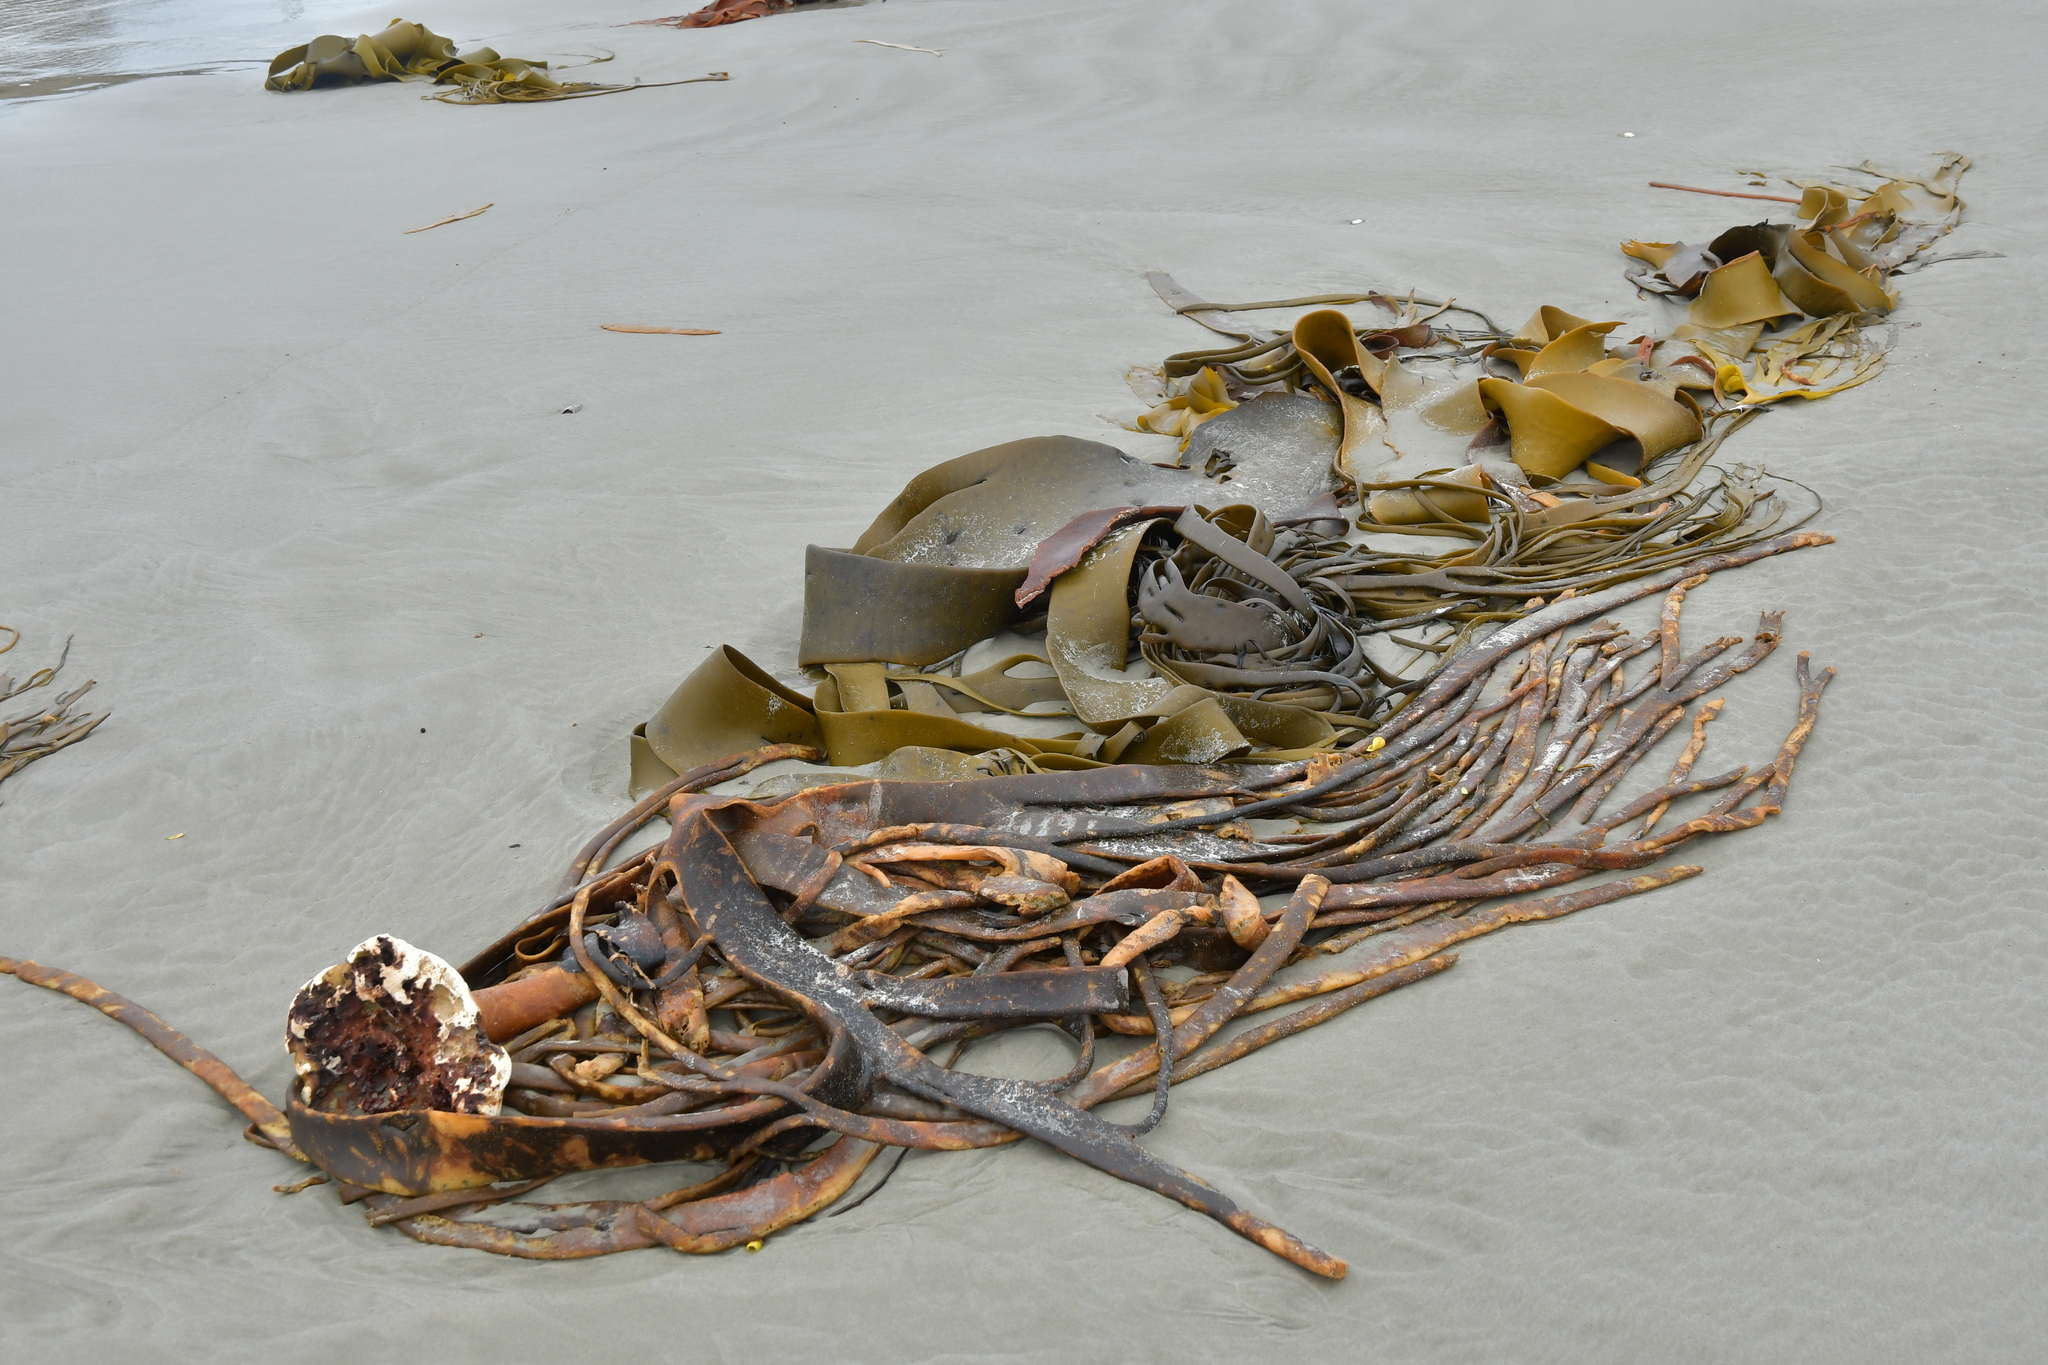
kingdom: Chromista
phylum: Ochrophyta
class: Phaeophyceae
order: Fucales
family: Durvillaeaceae
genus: Durvillaea
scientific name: Durvillaea antarctica
